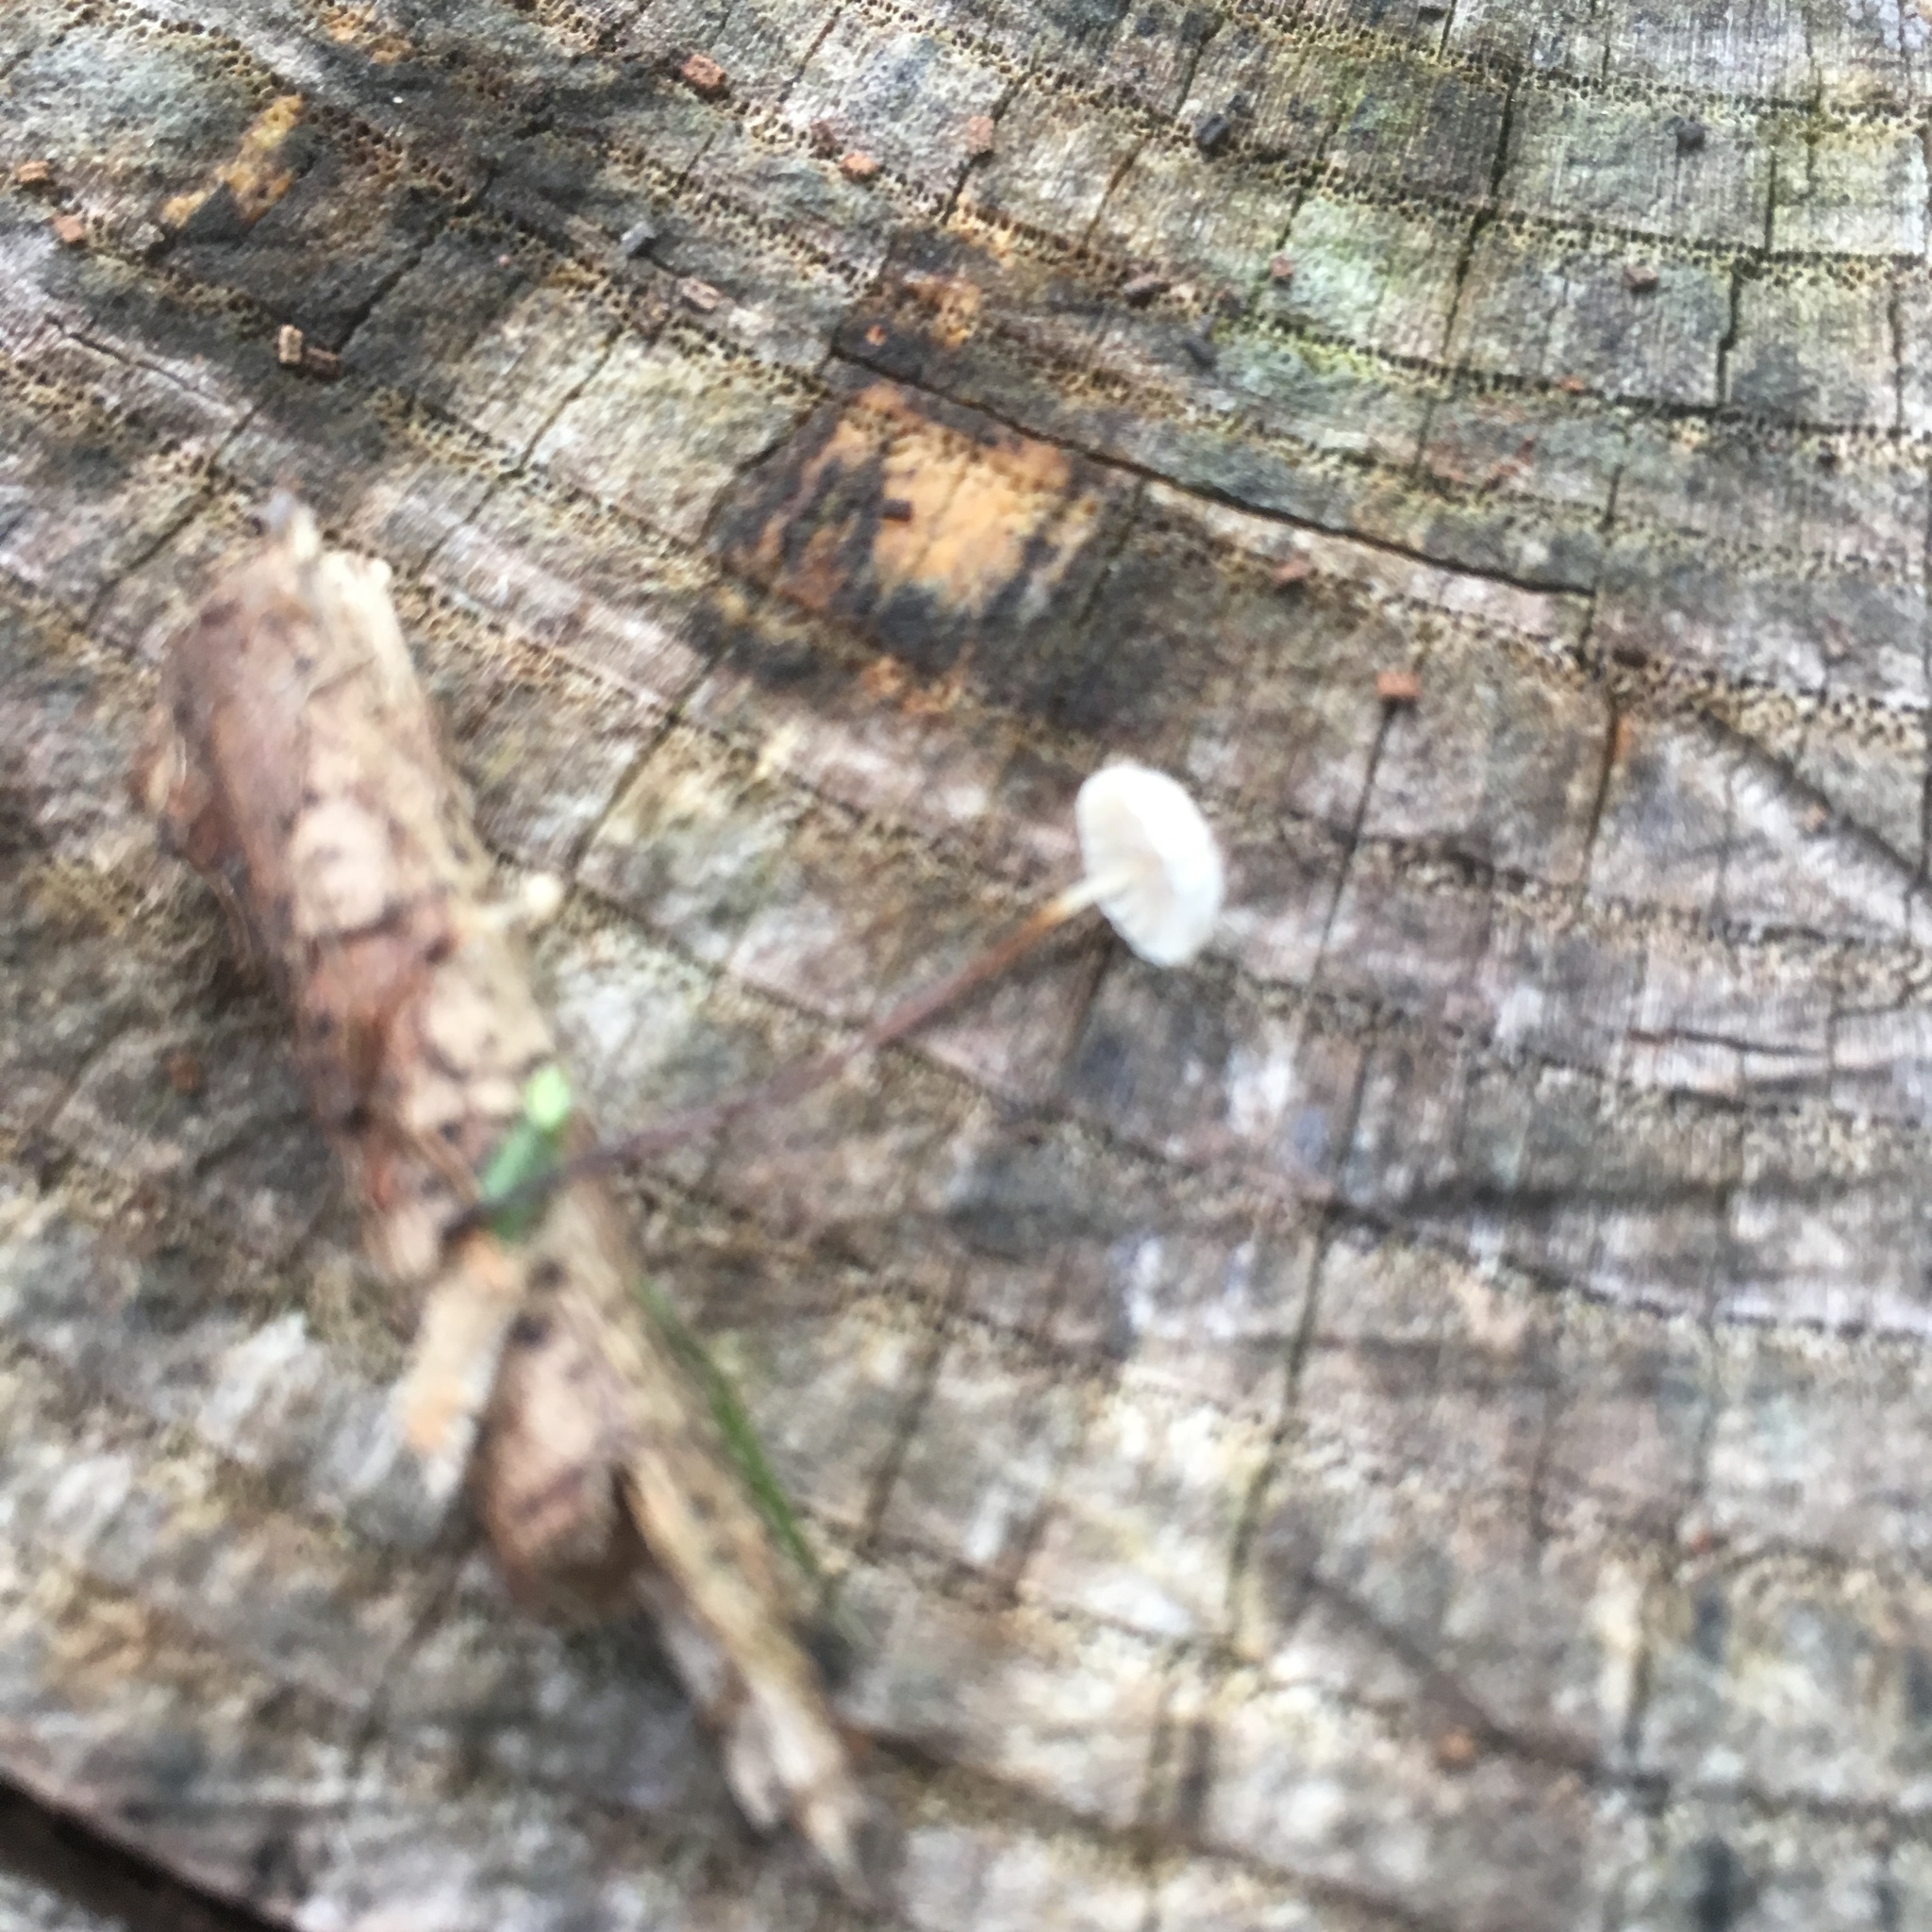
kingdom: Fungi
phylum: Basidiomycota
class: Agaricomycetes
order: Agaricales
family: Marasmiaceae
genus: Marasmius
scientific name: Marasmius rotula
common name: Collared parachute
